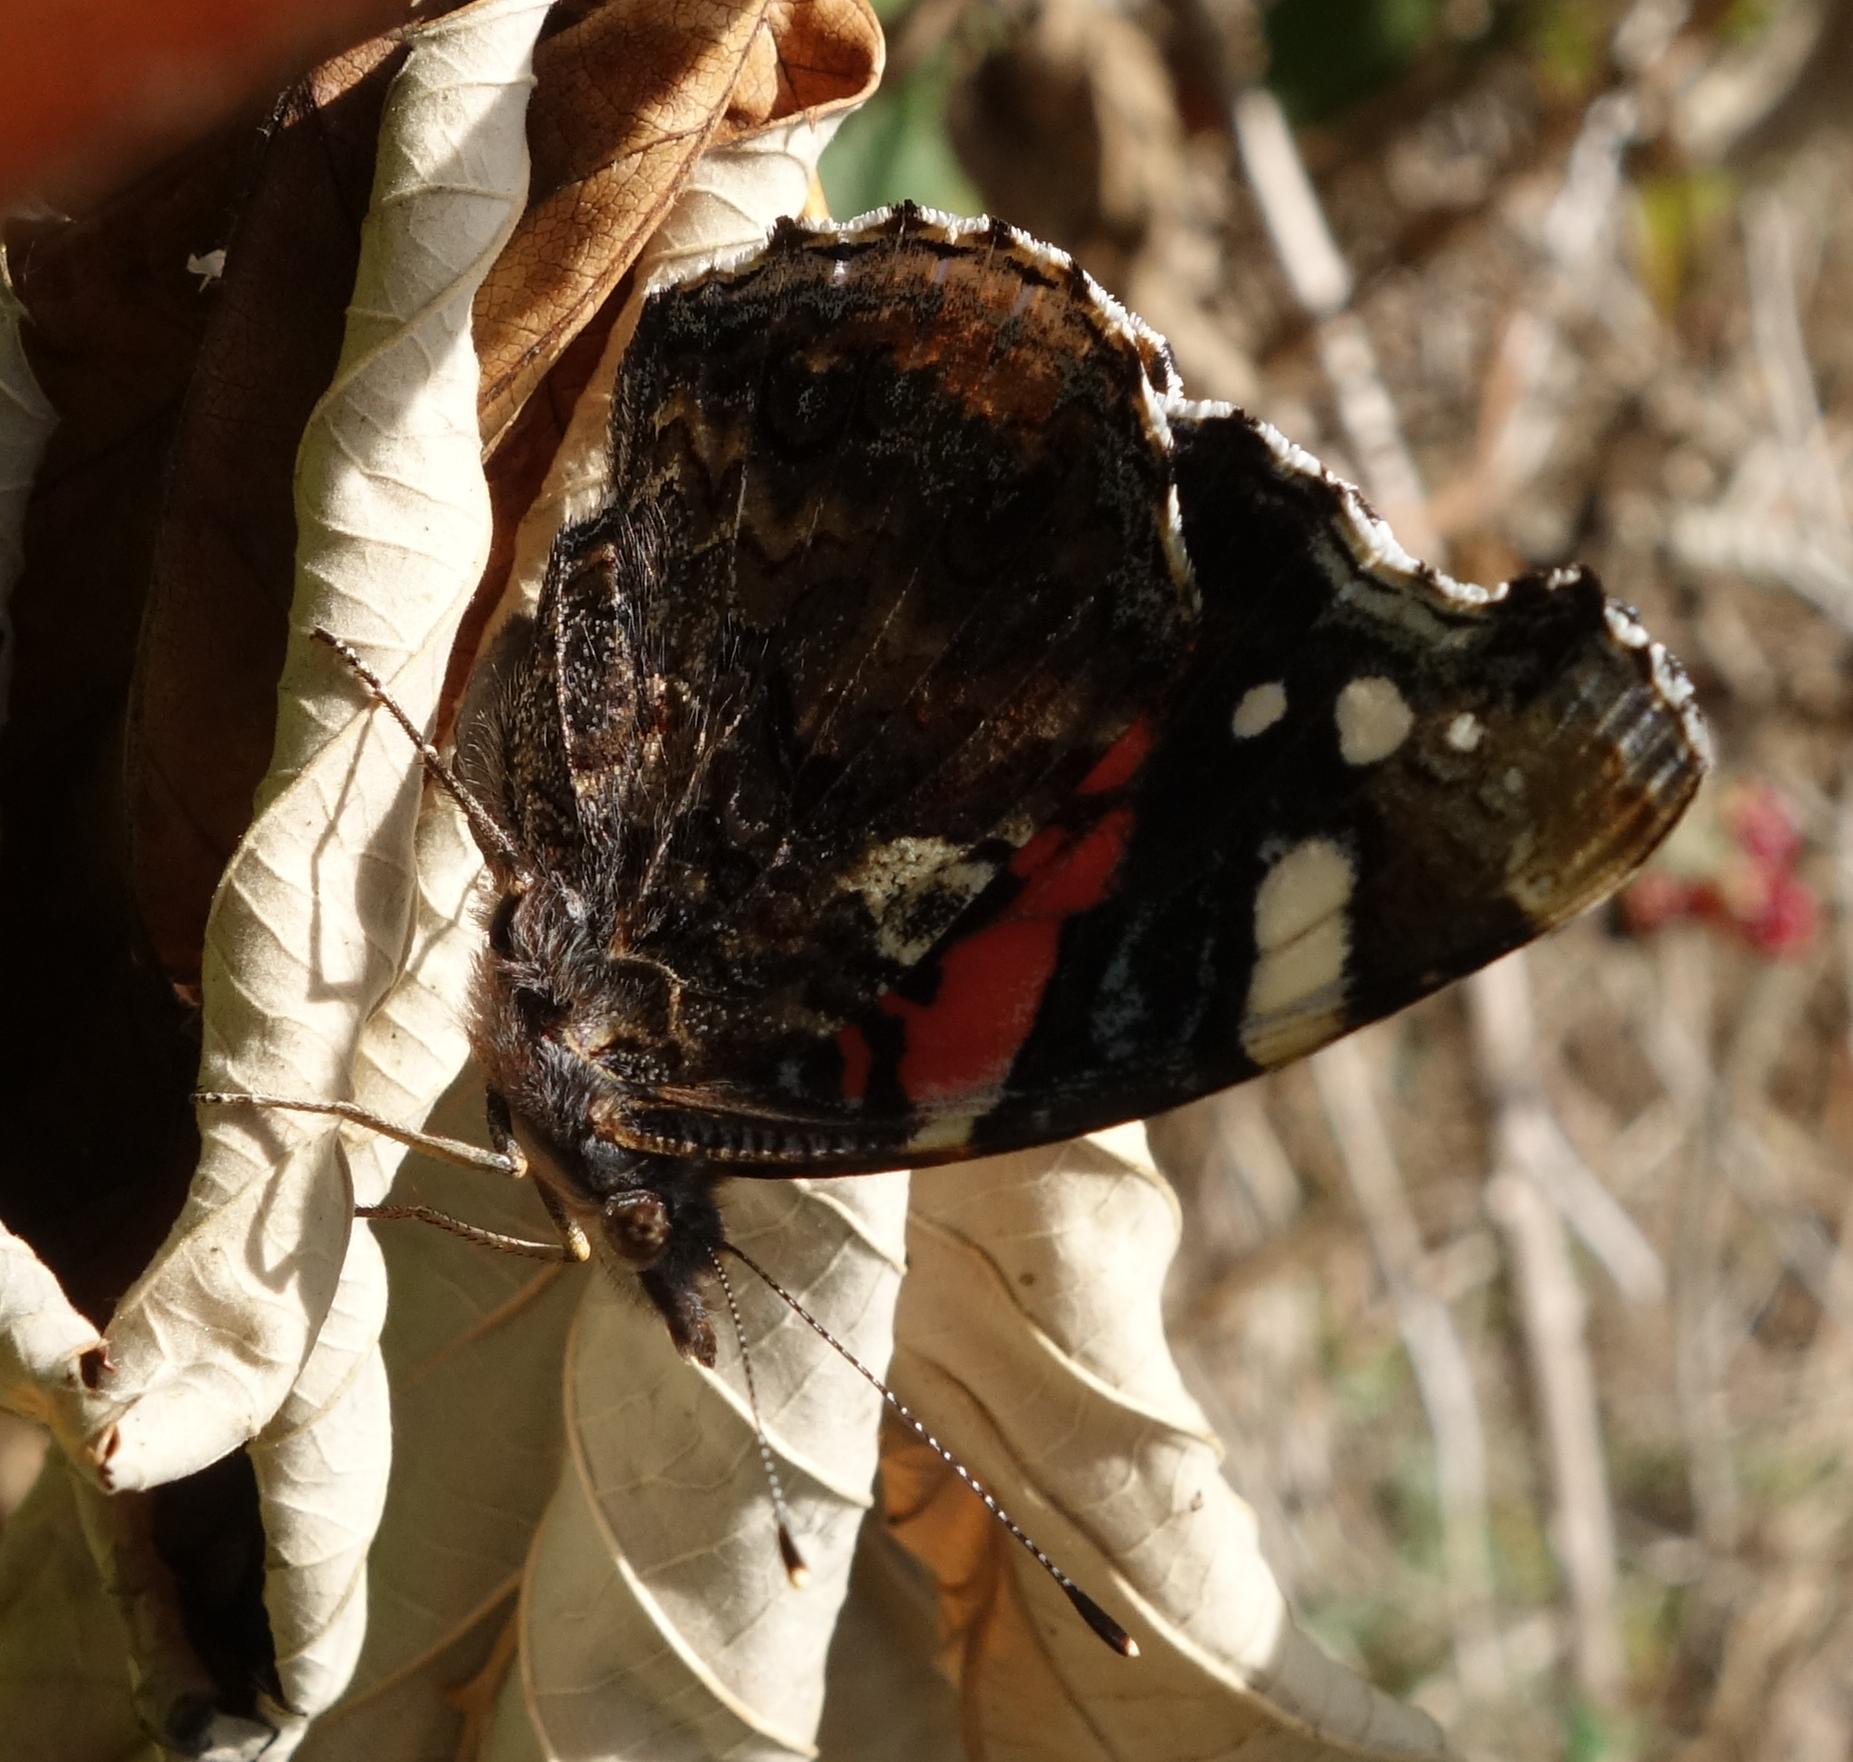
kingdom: Animalia
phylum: Arthropoda
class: Insecta
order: Lepidoptera
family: Nymphalidae
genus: Vanessa
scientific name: Vanessa atalanta
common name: Red admiral
